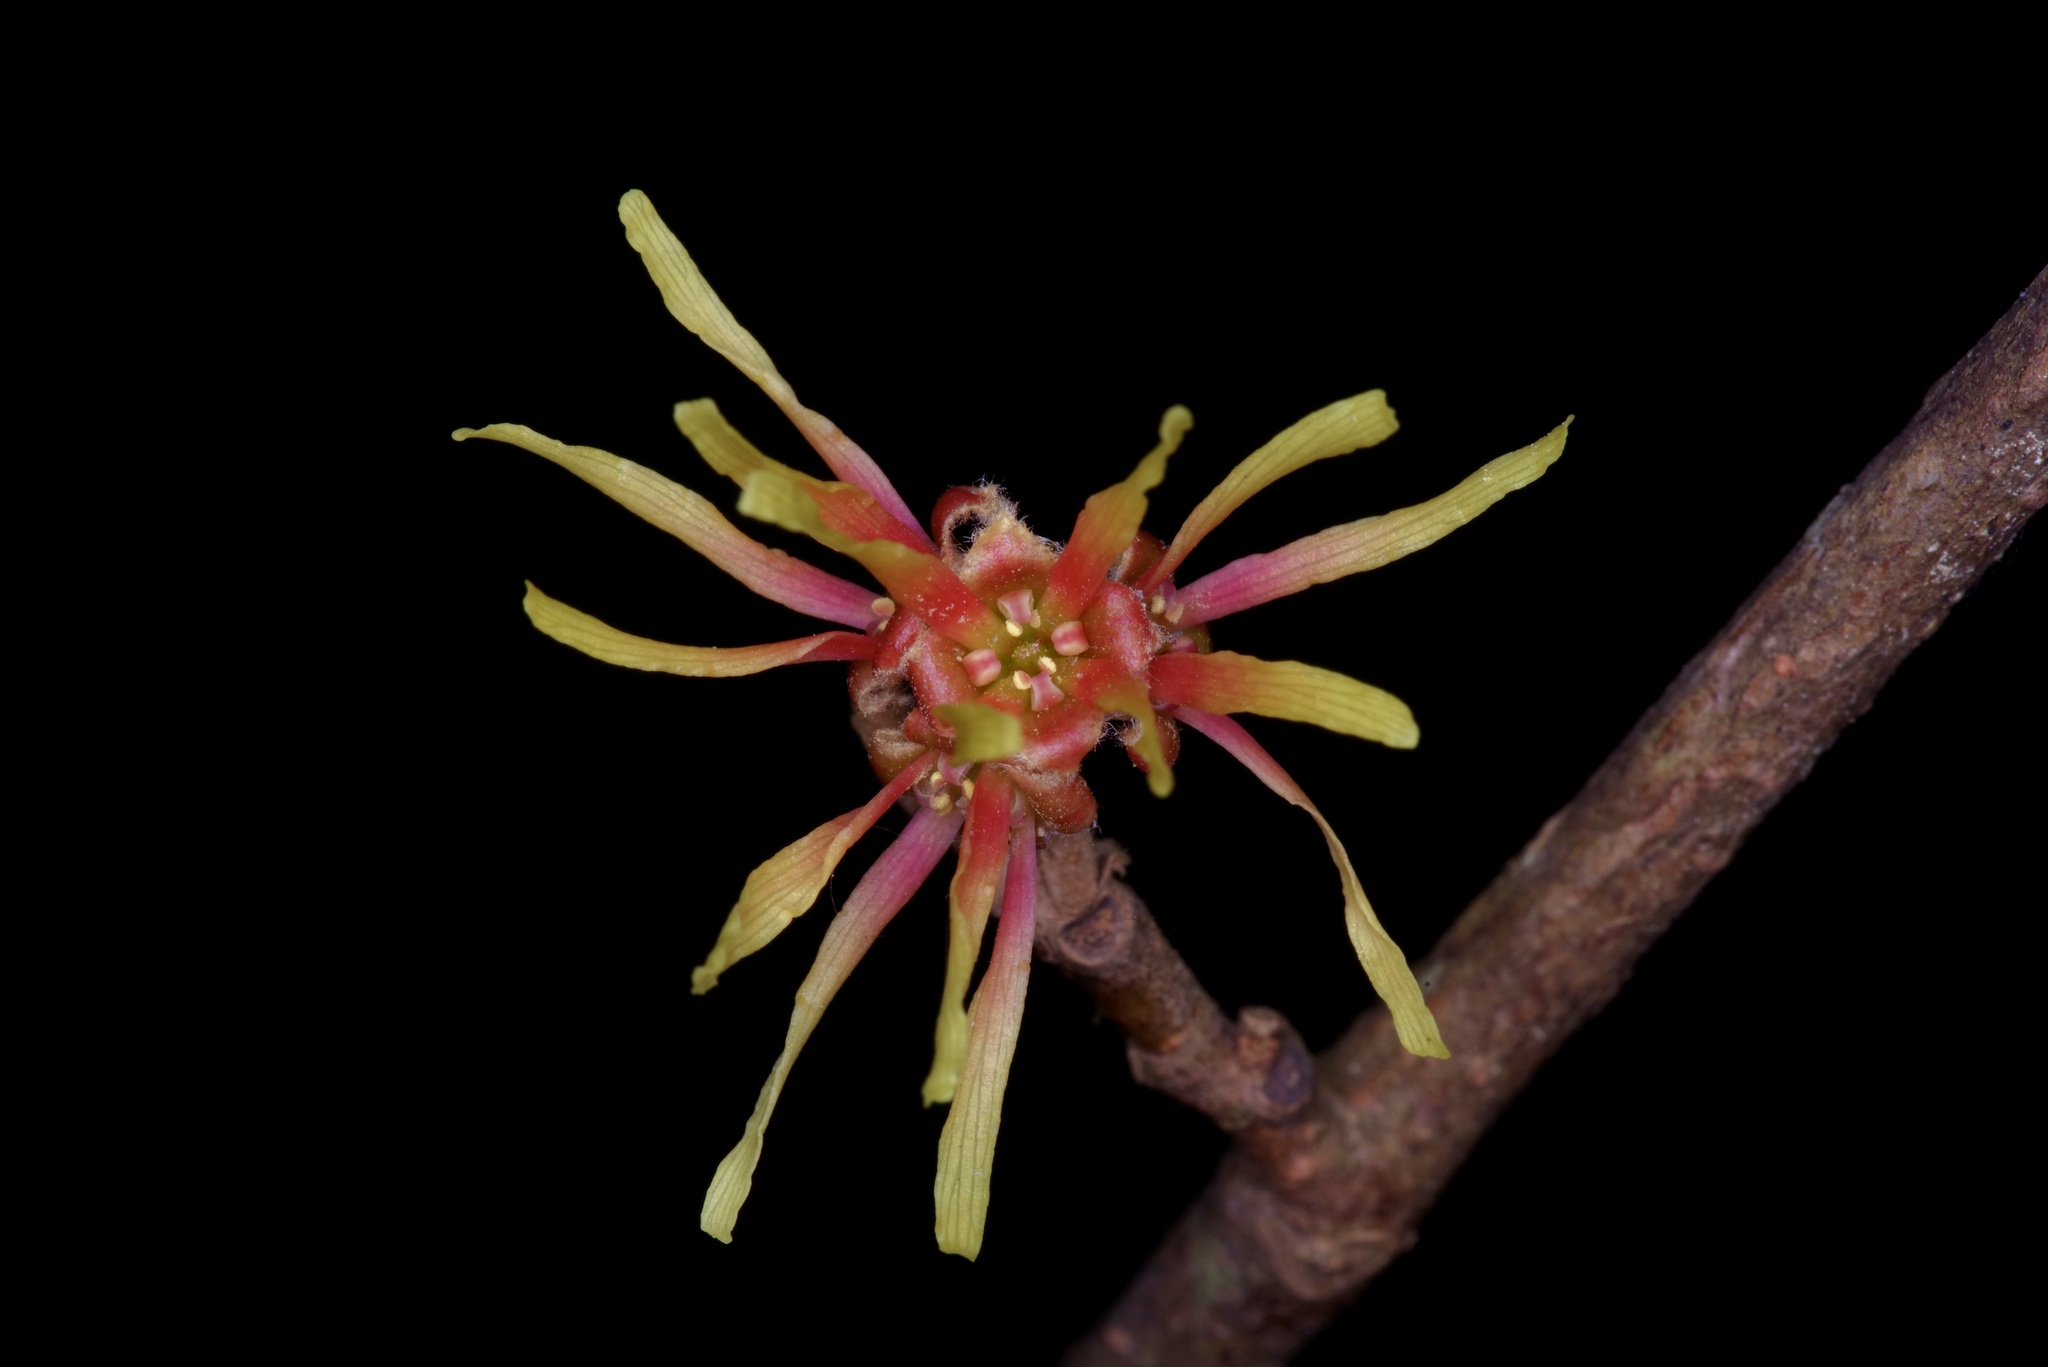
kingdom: Plantae
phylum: Tracheophyta
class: Magnoliopsida
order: Saxifragales
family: Hamamelidaceae
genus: Hamamelis
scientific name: Hamamelis ovalis
